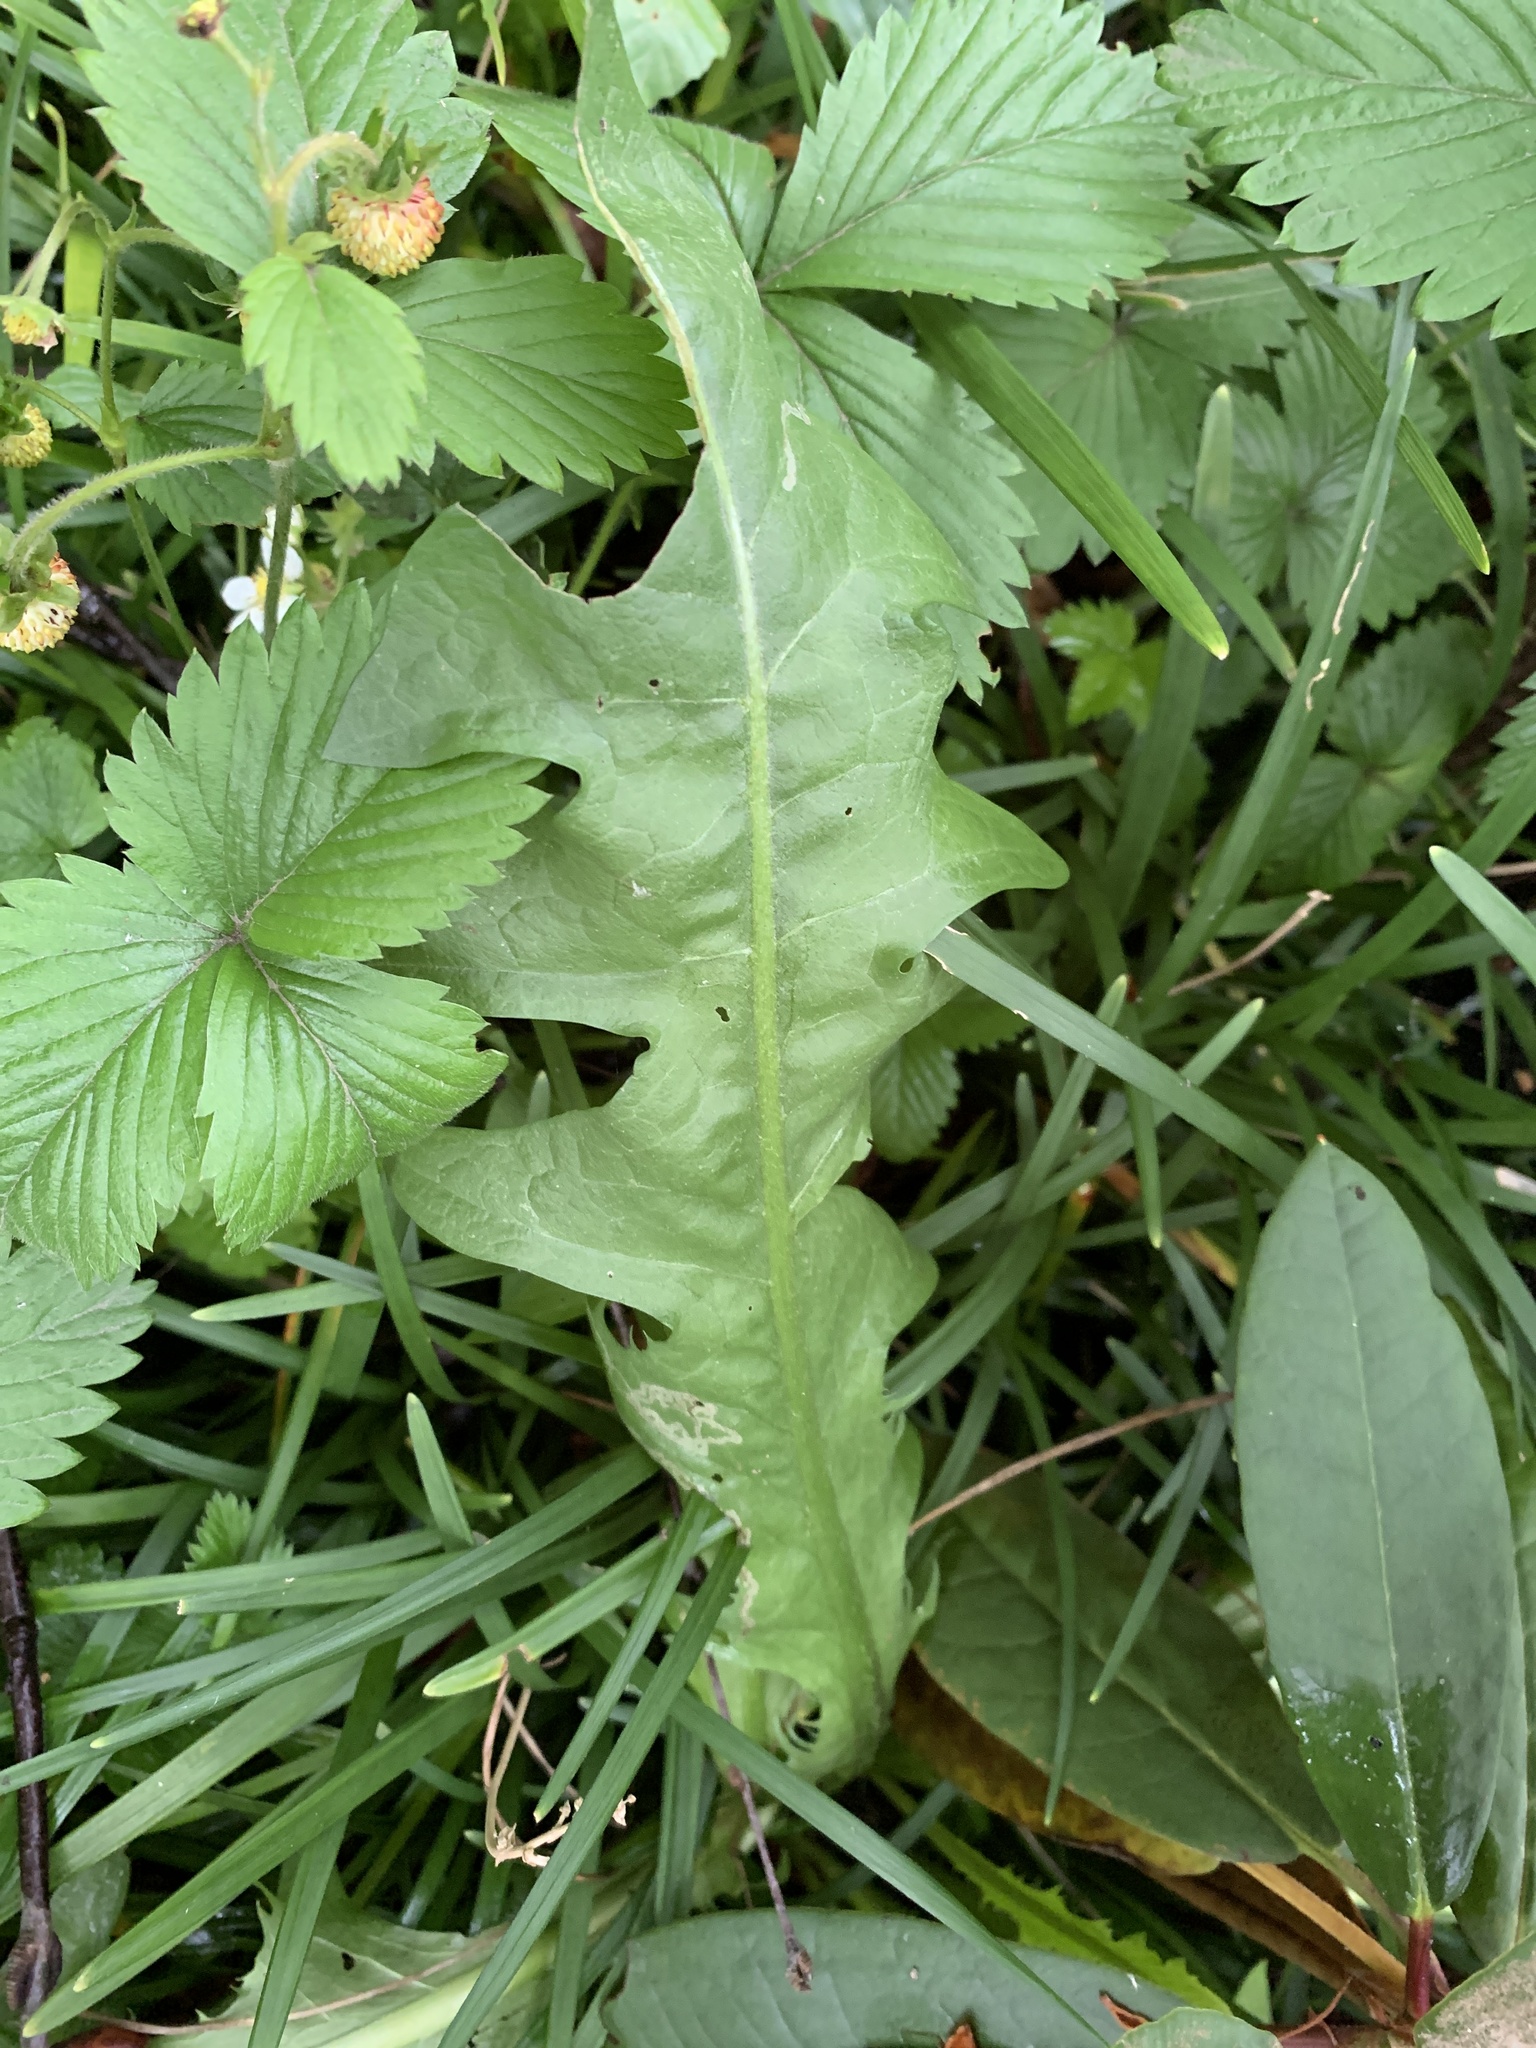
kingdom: Plantae
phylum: Tracheophyta
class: Magnoliopsida
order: Asterales
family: Asteraceae
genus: Taraxacum
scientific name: Taraxacum officinale
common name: Common dandelion
